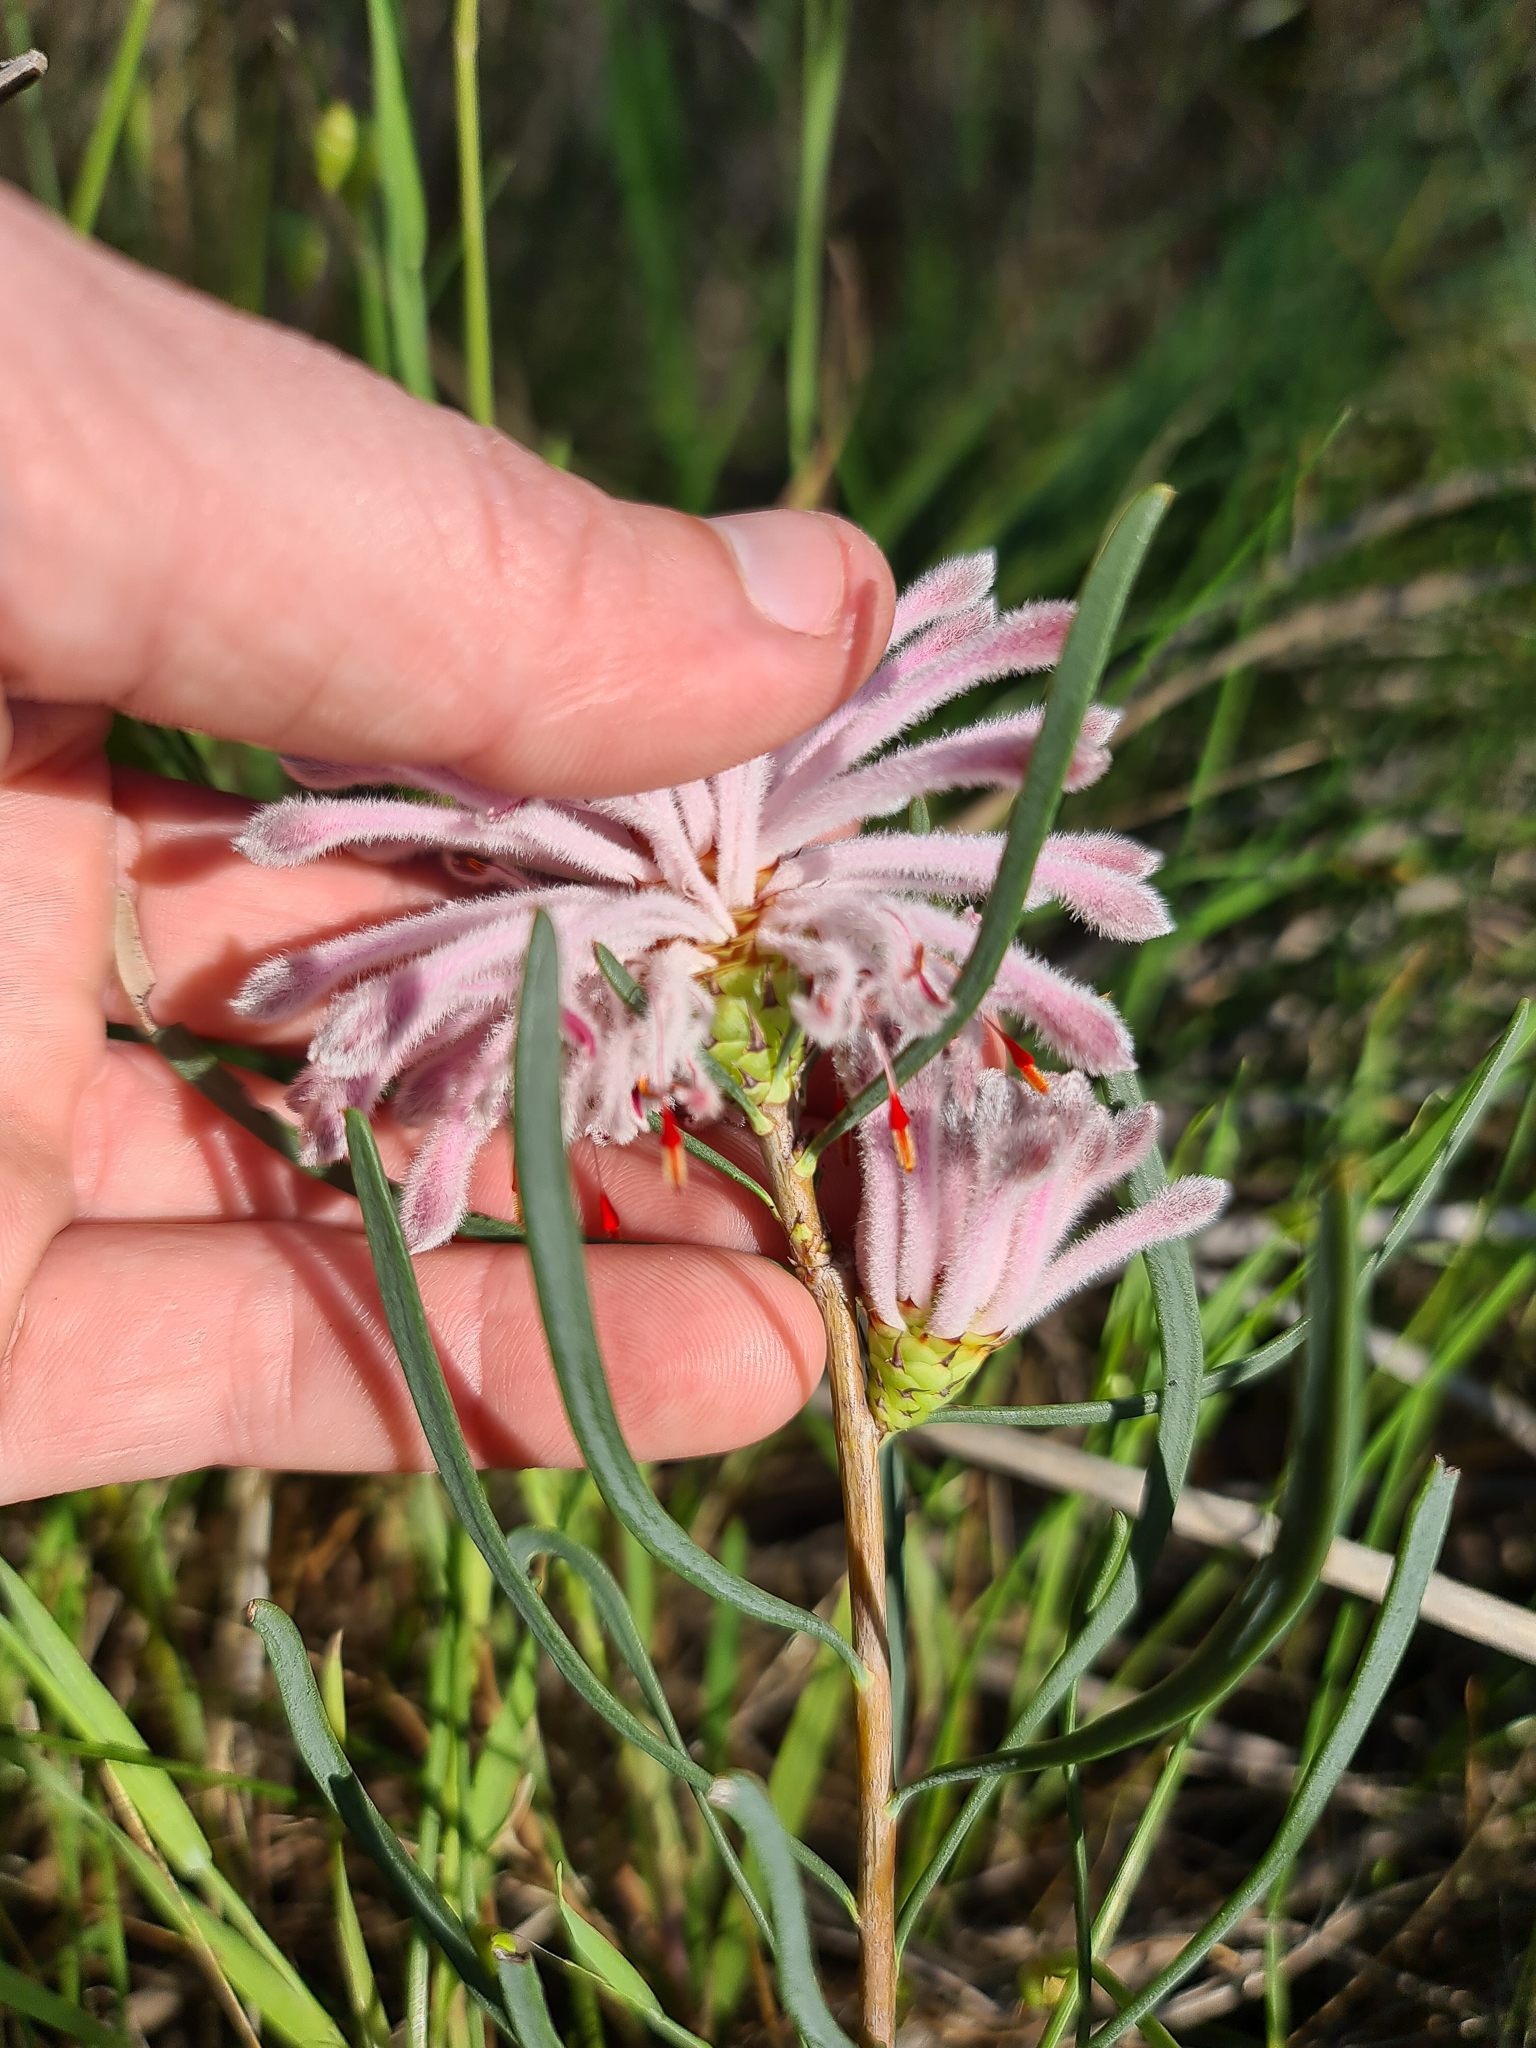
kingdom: Plantae
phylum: Tracheophyta
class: Magnoliopsida
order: Proteales
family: Proteaceae
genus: Petrophile
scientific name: Petrophile linearis
